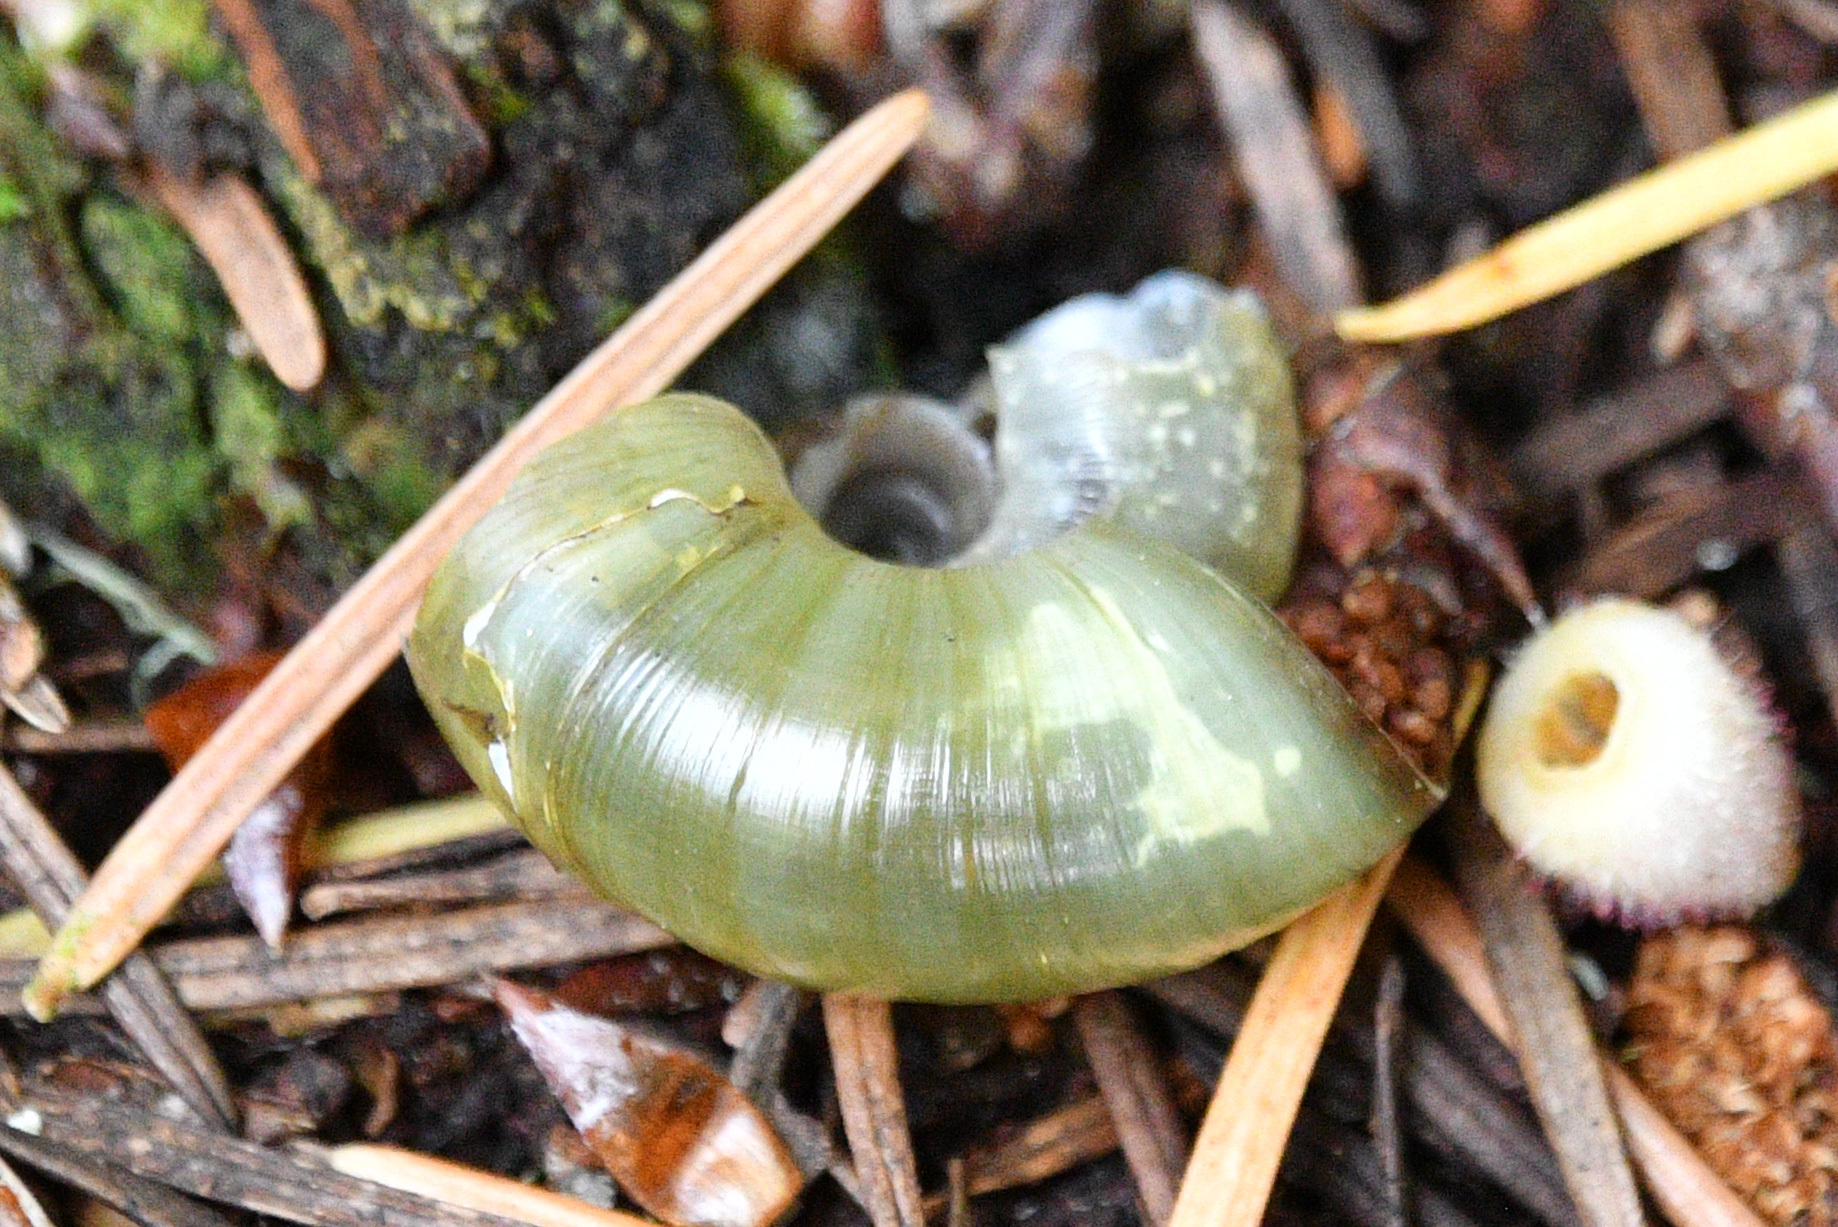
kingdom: Animalia
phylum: Mollusca
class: Gastropoda
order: Stylommatophora
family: Haplotrematidae
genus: Haplotrema
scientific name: Haplotrema vancouverense
